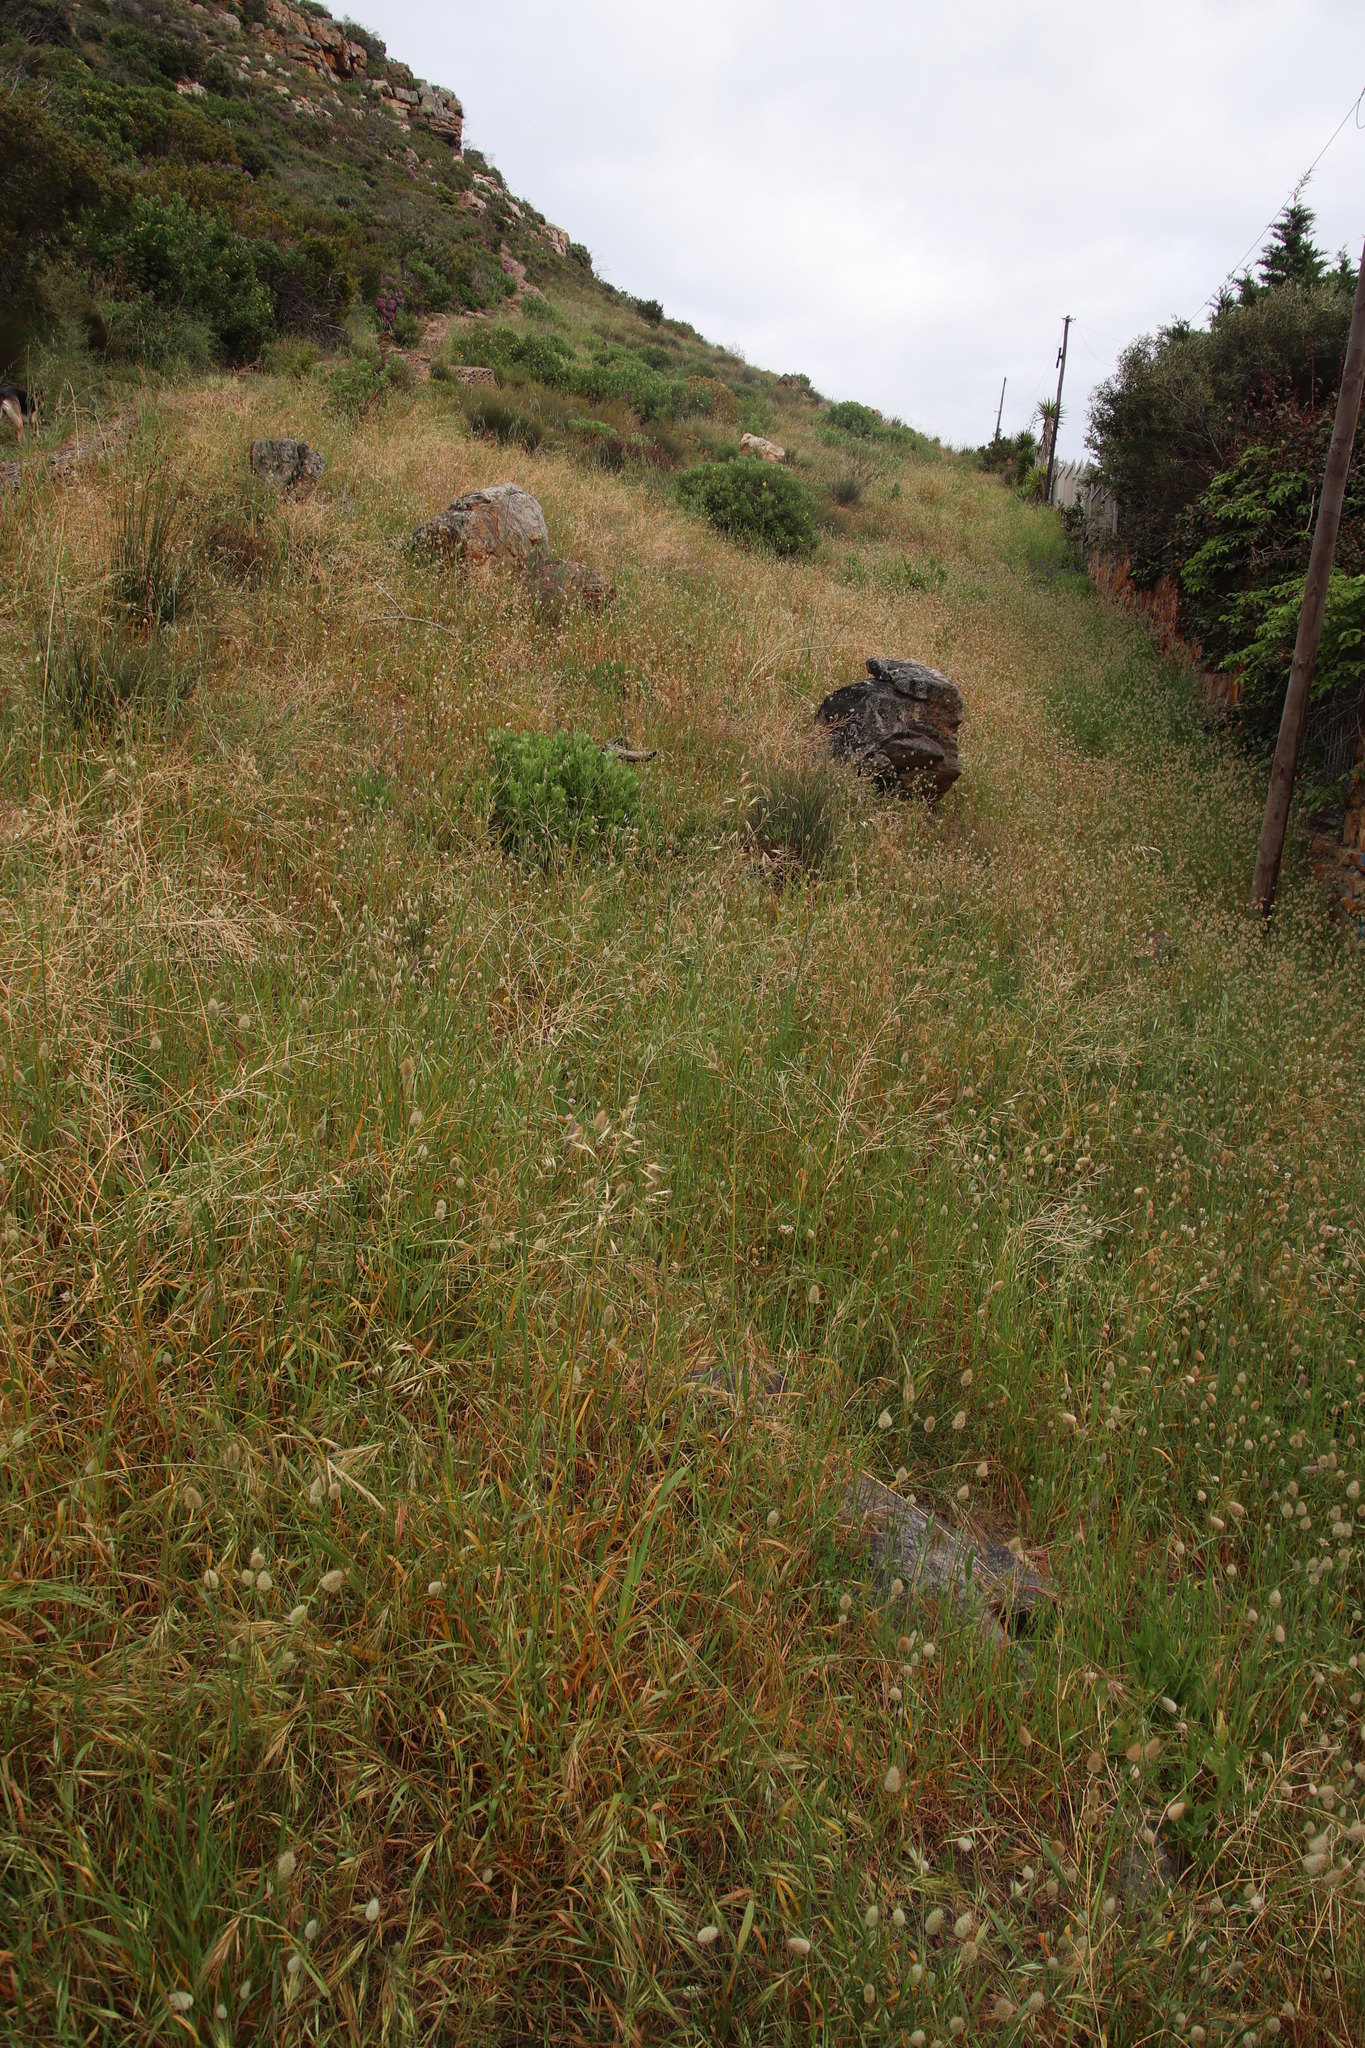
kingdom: Plantae
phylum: Tracheophyta
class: Liliopsida
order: Poales
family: Poaceae
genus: Lagurus
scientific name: Lagurus ovatus
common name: Hare's-tail
